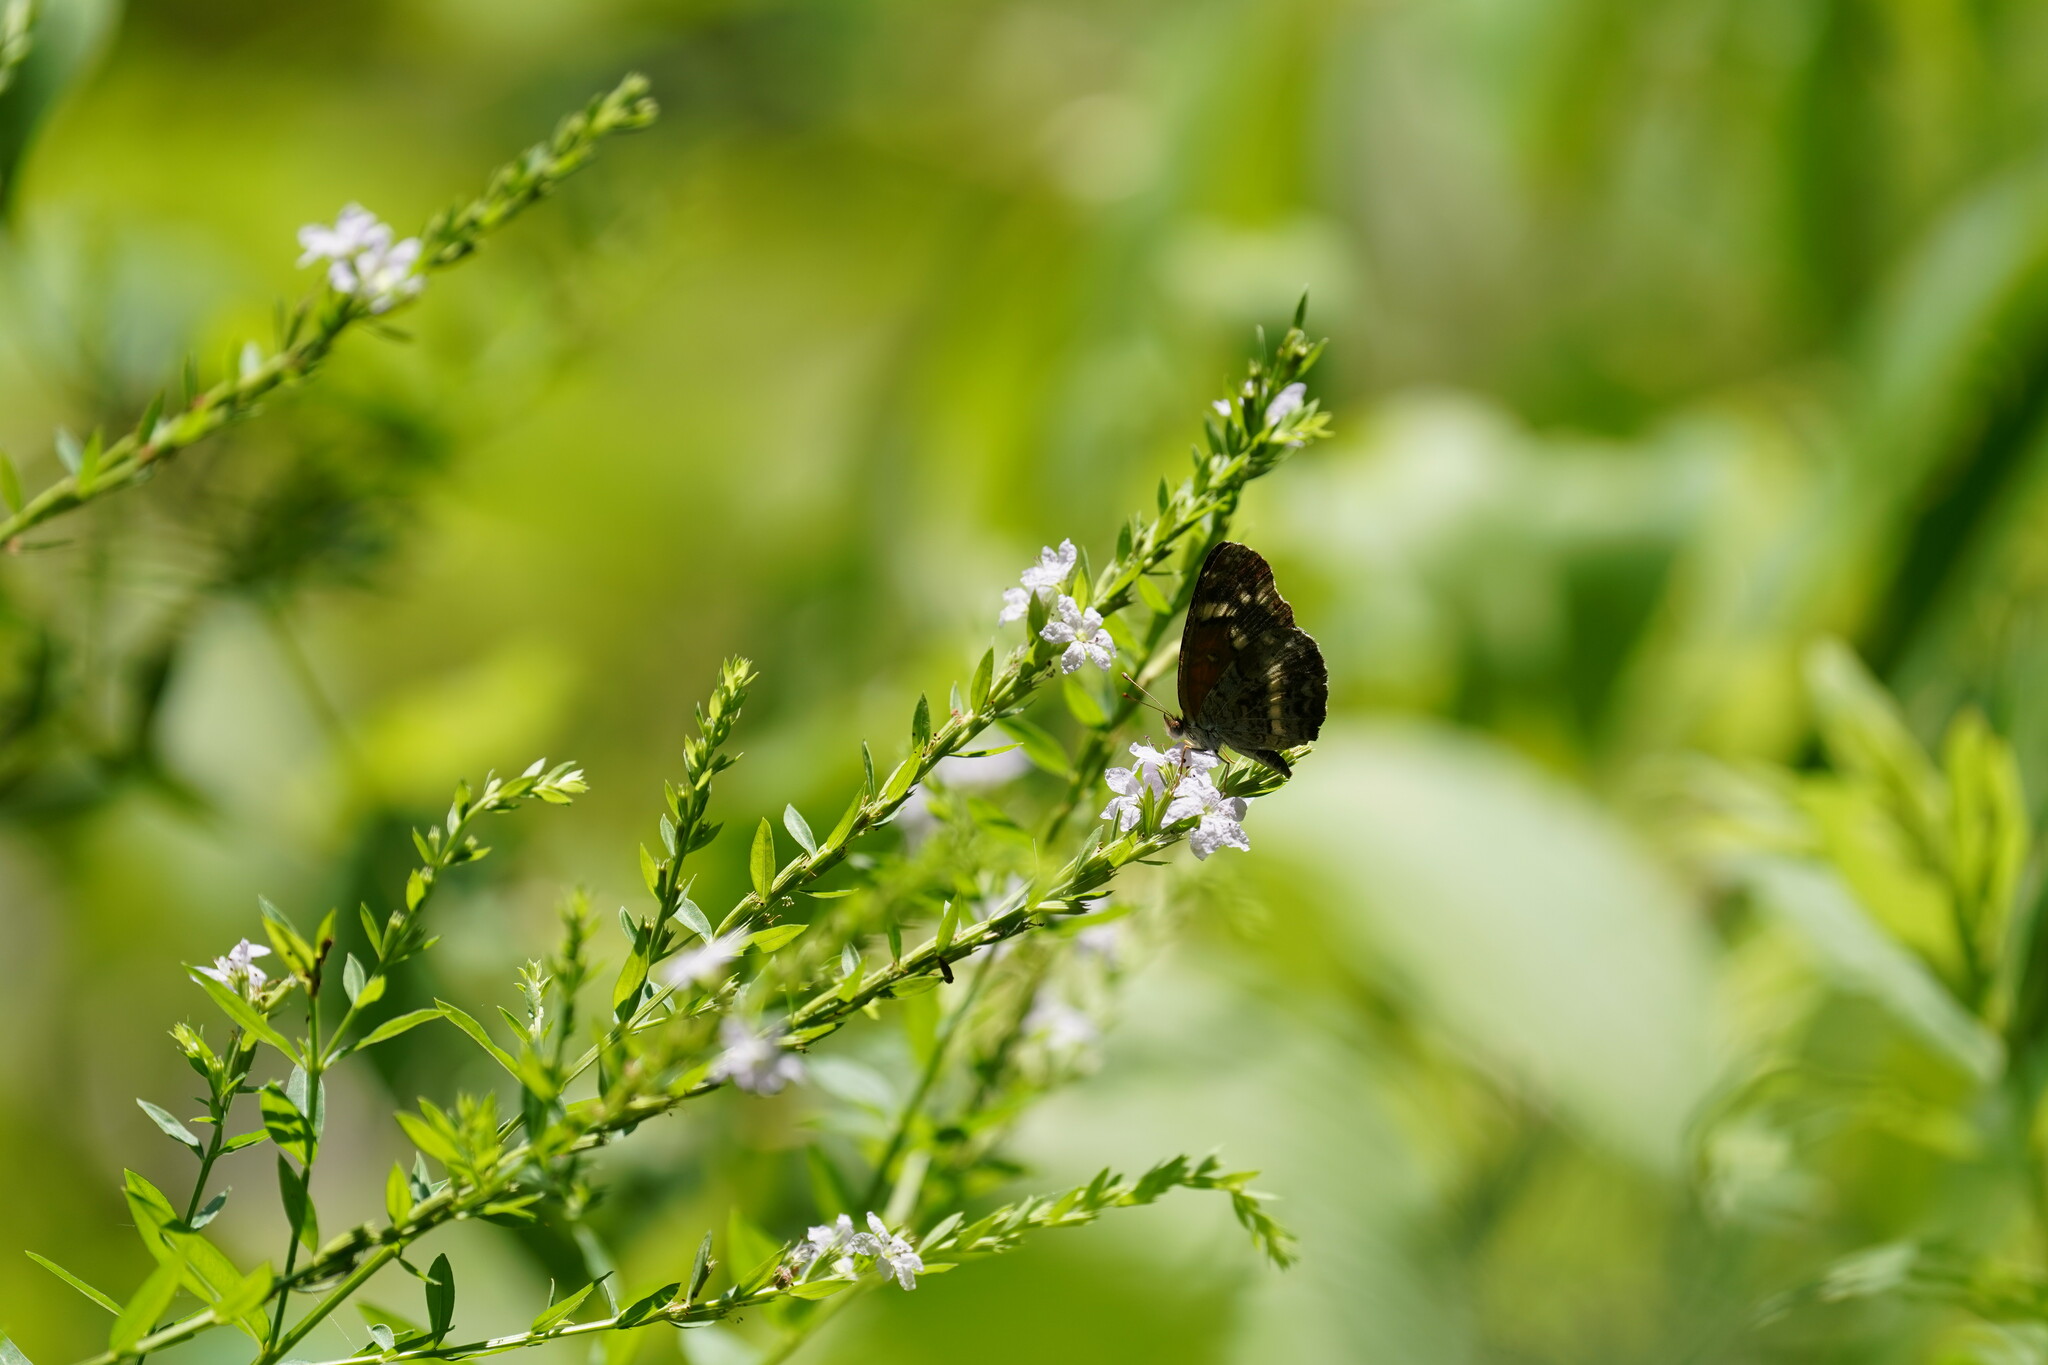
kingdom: Animalia
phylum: Arthropoda
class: Insecta
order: Lepidoptera
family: Nymphalidae
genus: Anthanassa
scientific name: Anthanassa taxana
